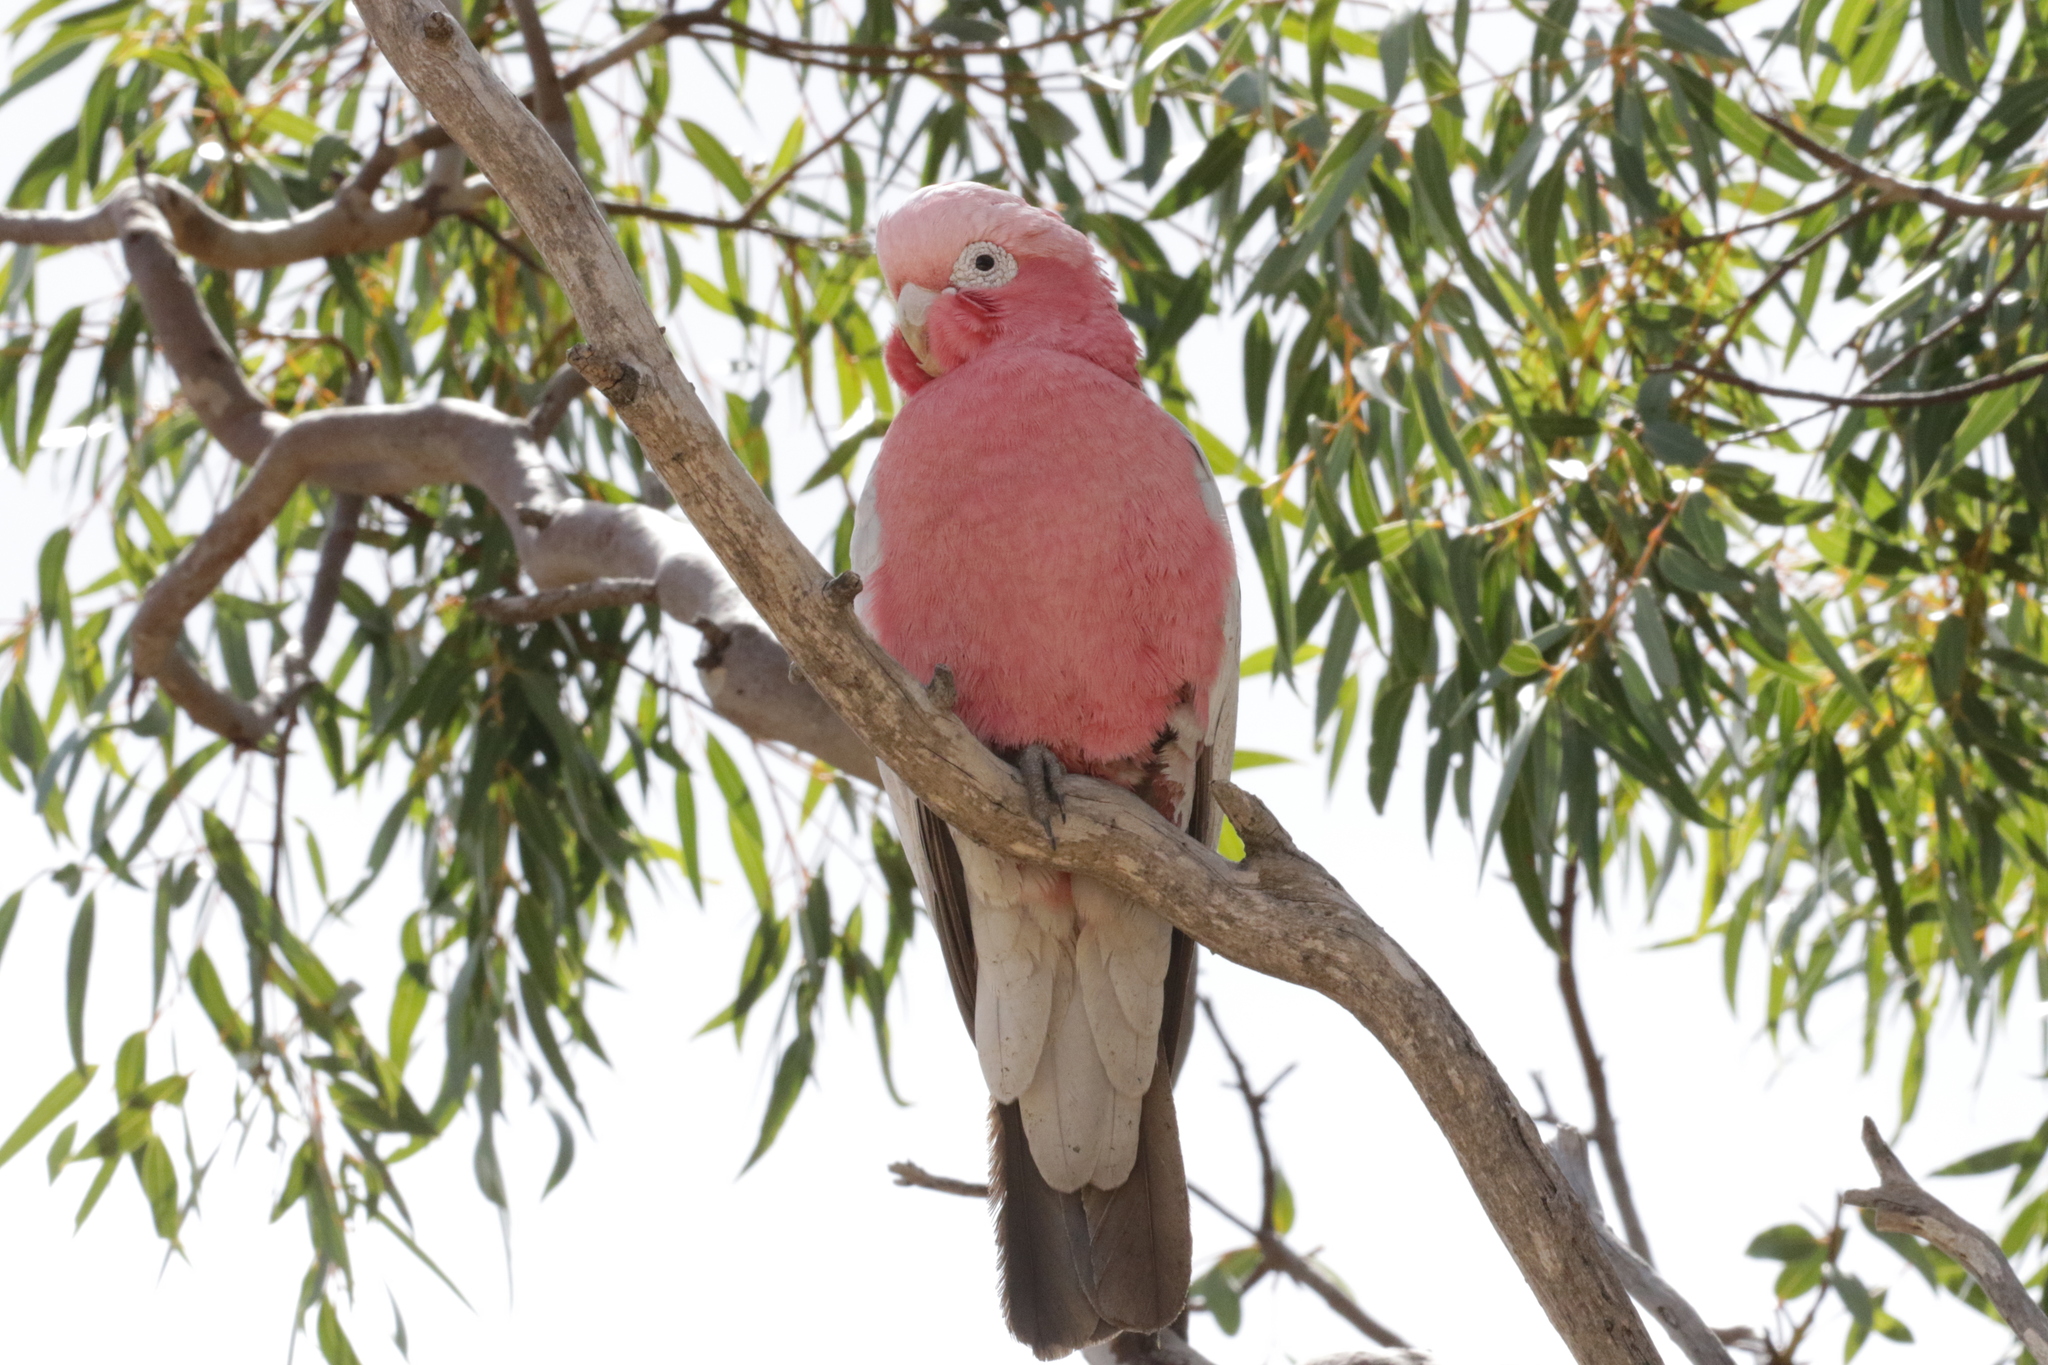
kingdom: Animalia
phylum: Chordata
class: Aves
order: Psittaciformes
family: Psittacidae
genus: Eolophus
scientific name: Eolophus roseicapilla
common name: Galah
